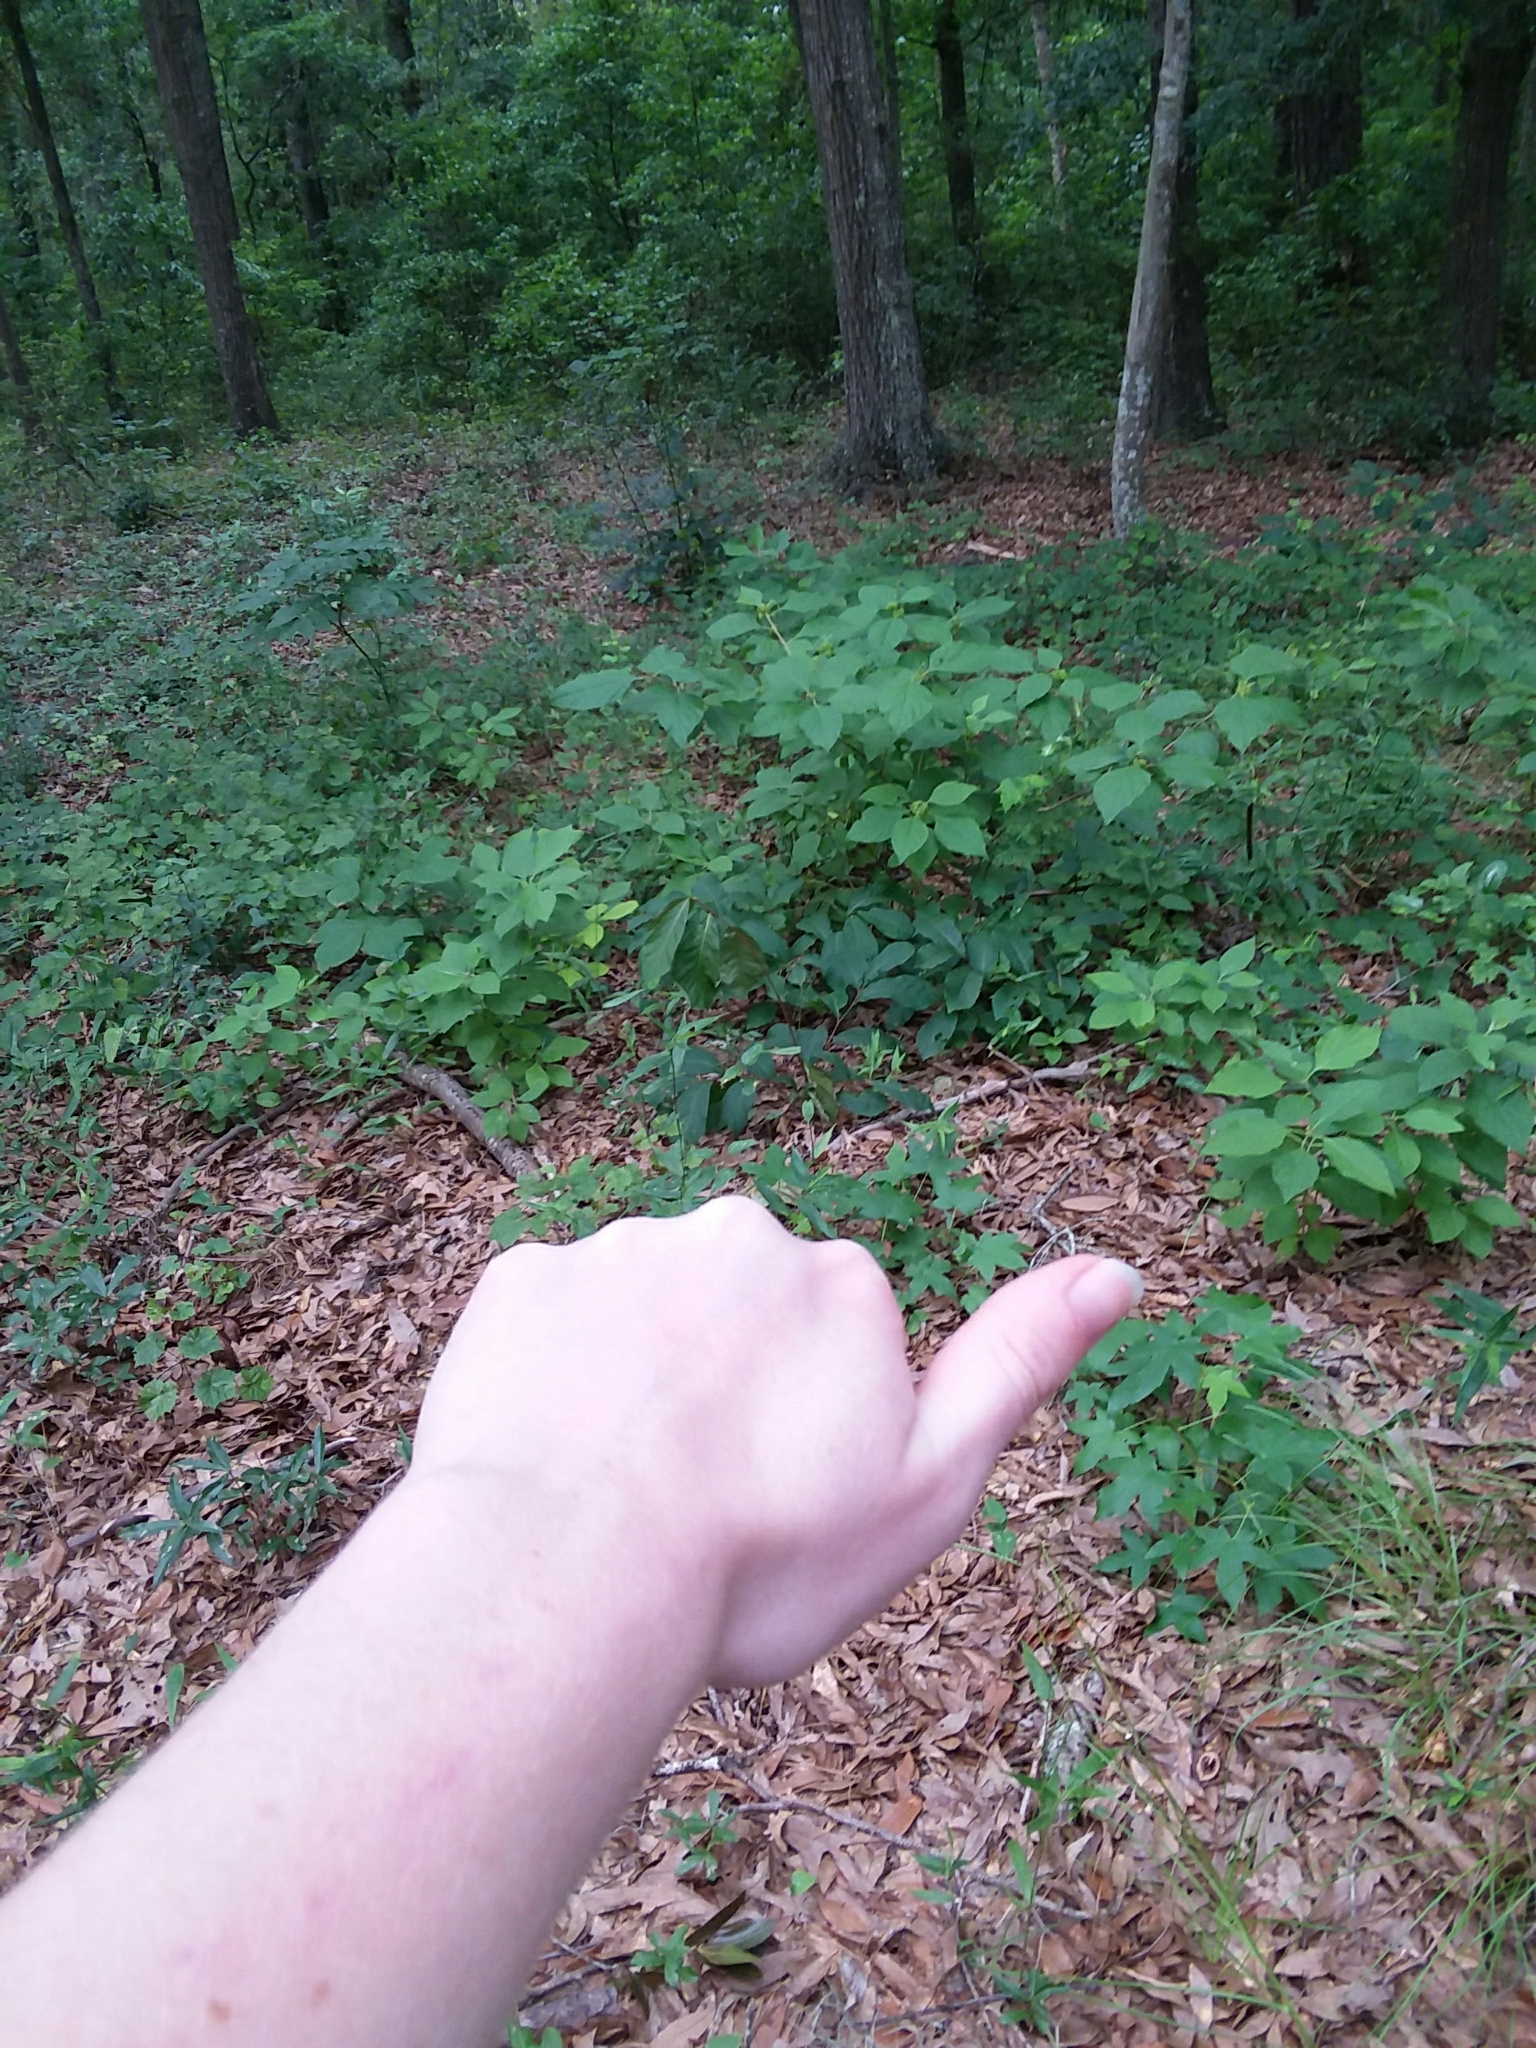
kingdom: Plantae
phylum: Tracheophyta
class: Magnoliopsida
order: Magnoliales
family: Annonaceae
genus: Asimina
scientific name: Asimina parviflora
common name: Dwarf pawpaw
